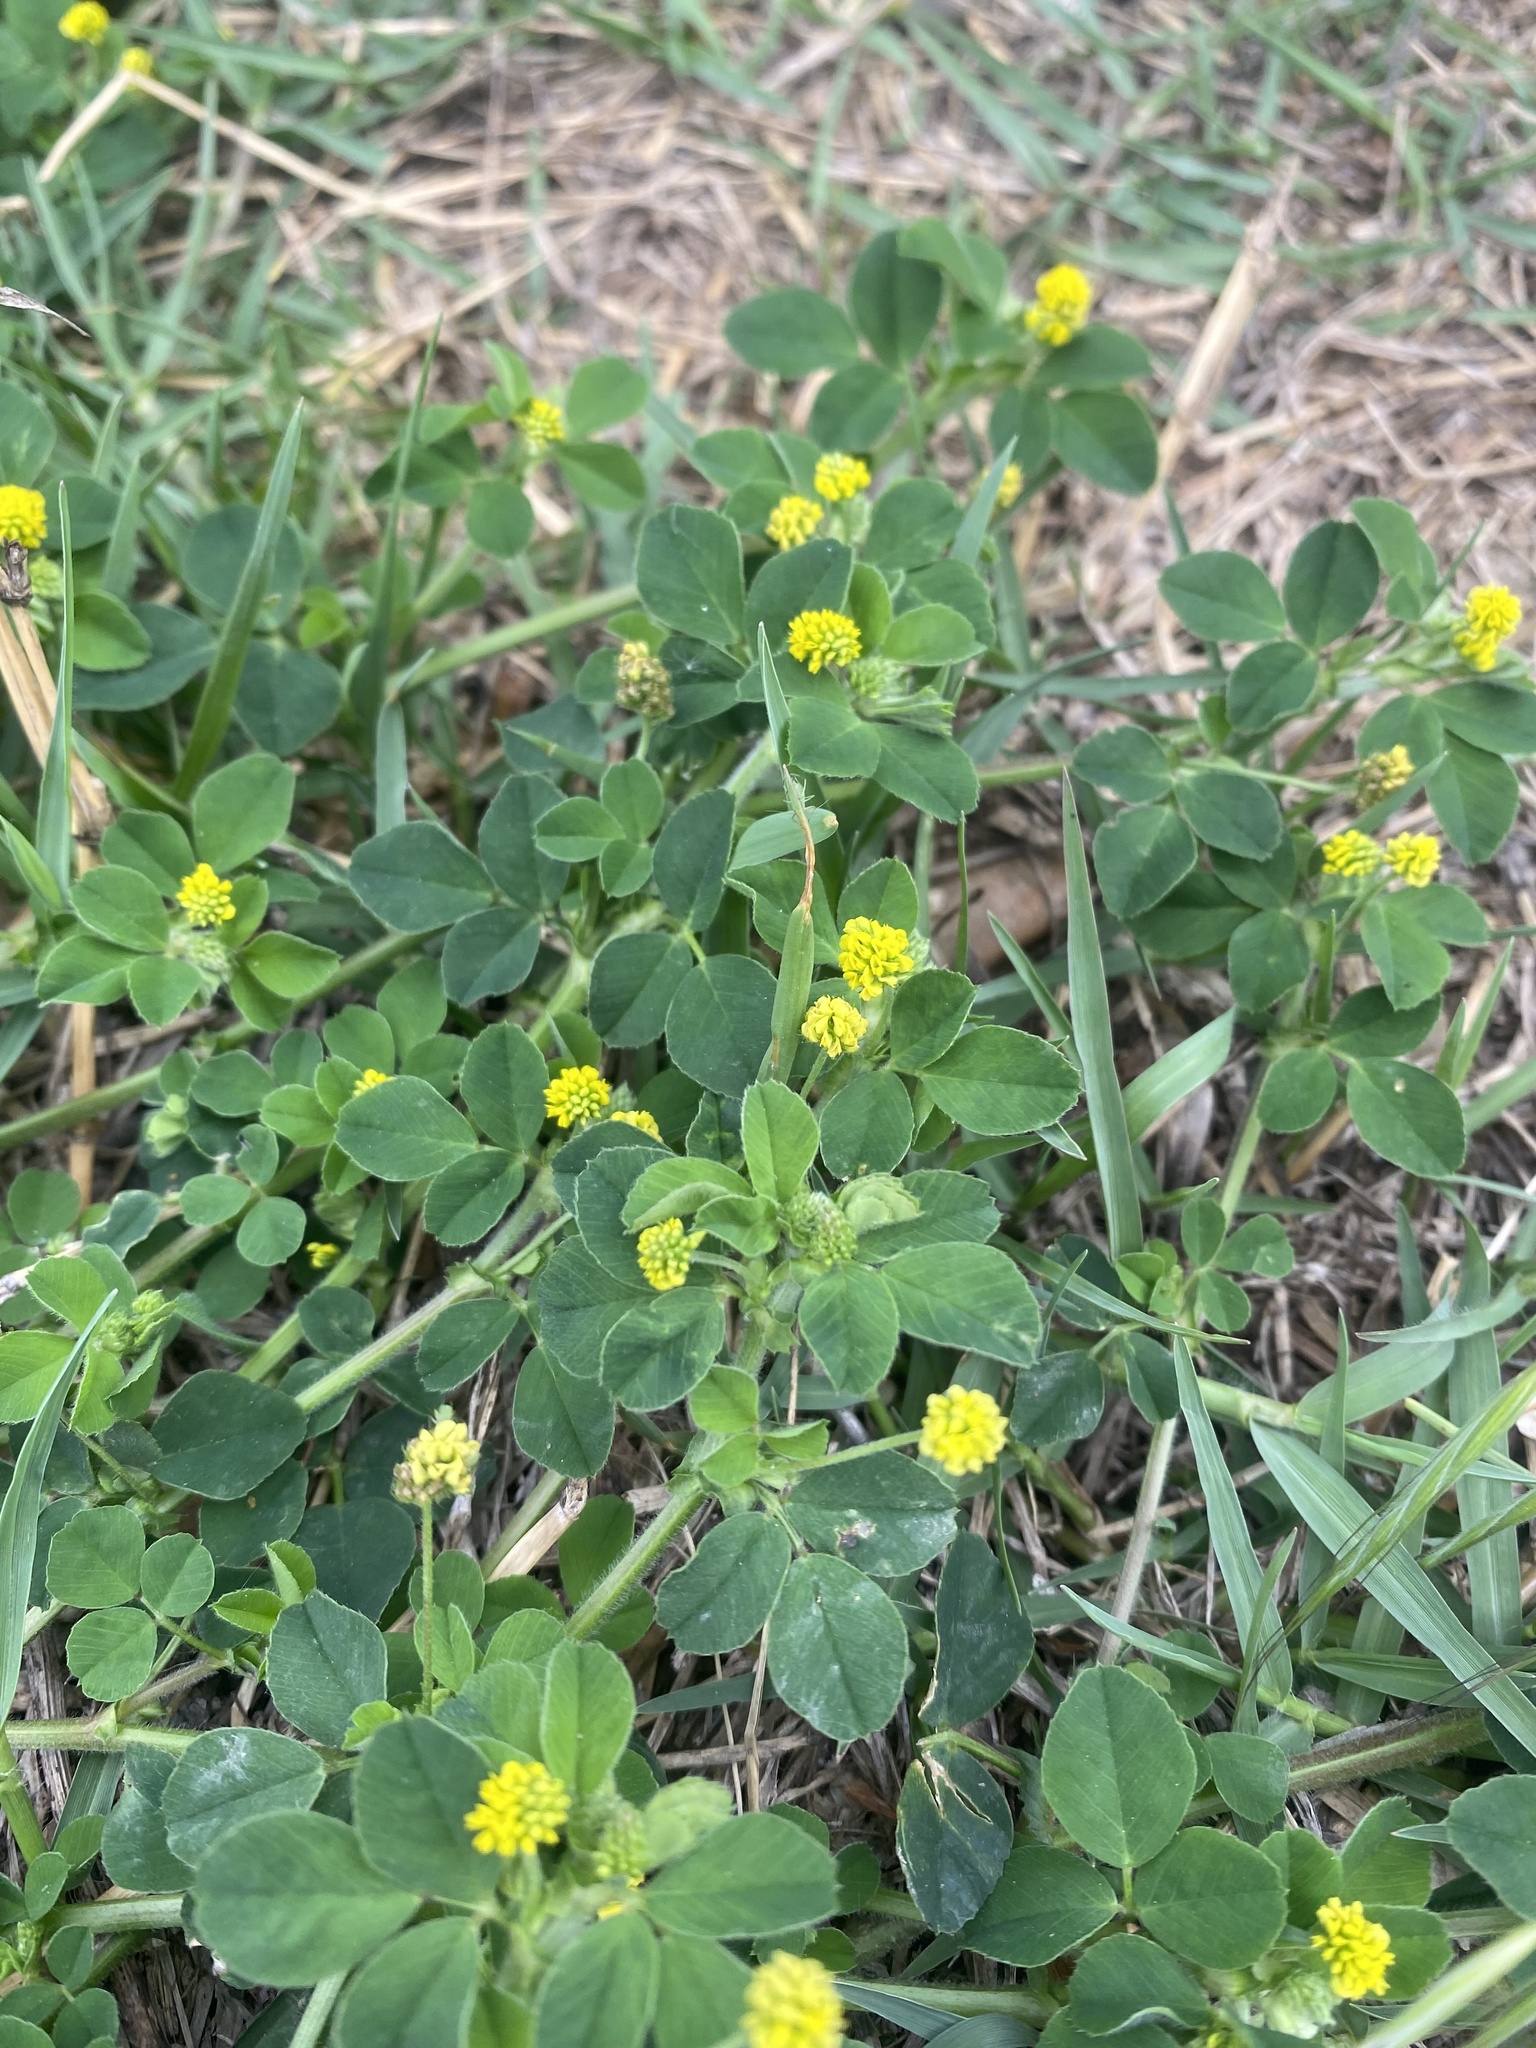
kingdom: Plantae
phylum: Tracheophyta
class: Magnoliopsida
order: Fabales
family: Fabaceae
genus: Medicago
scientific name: Medicago lupulina
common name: Black medick
